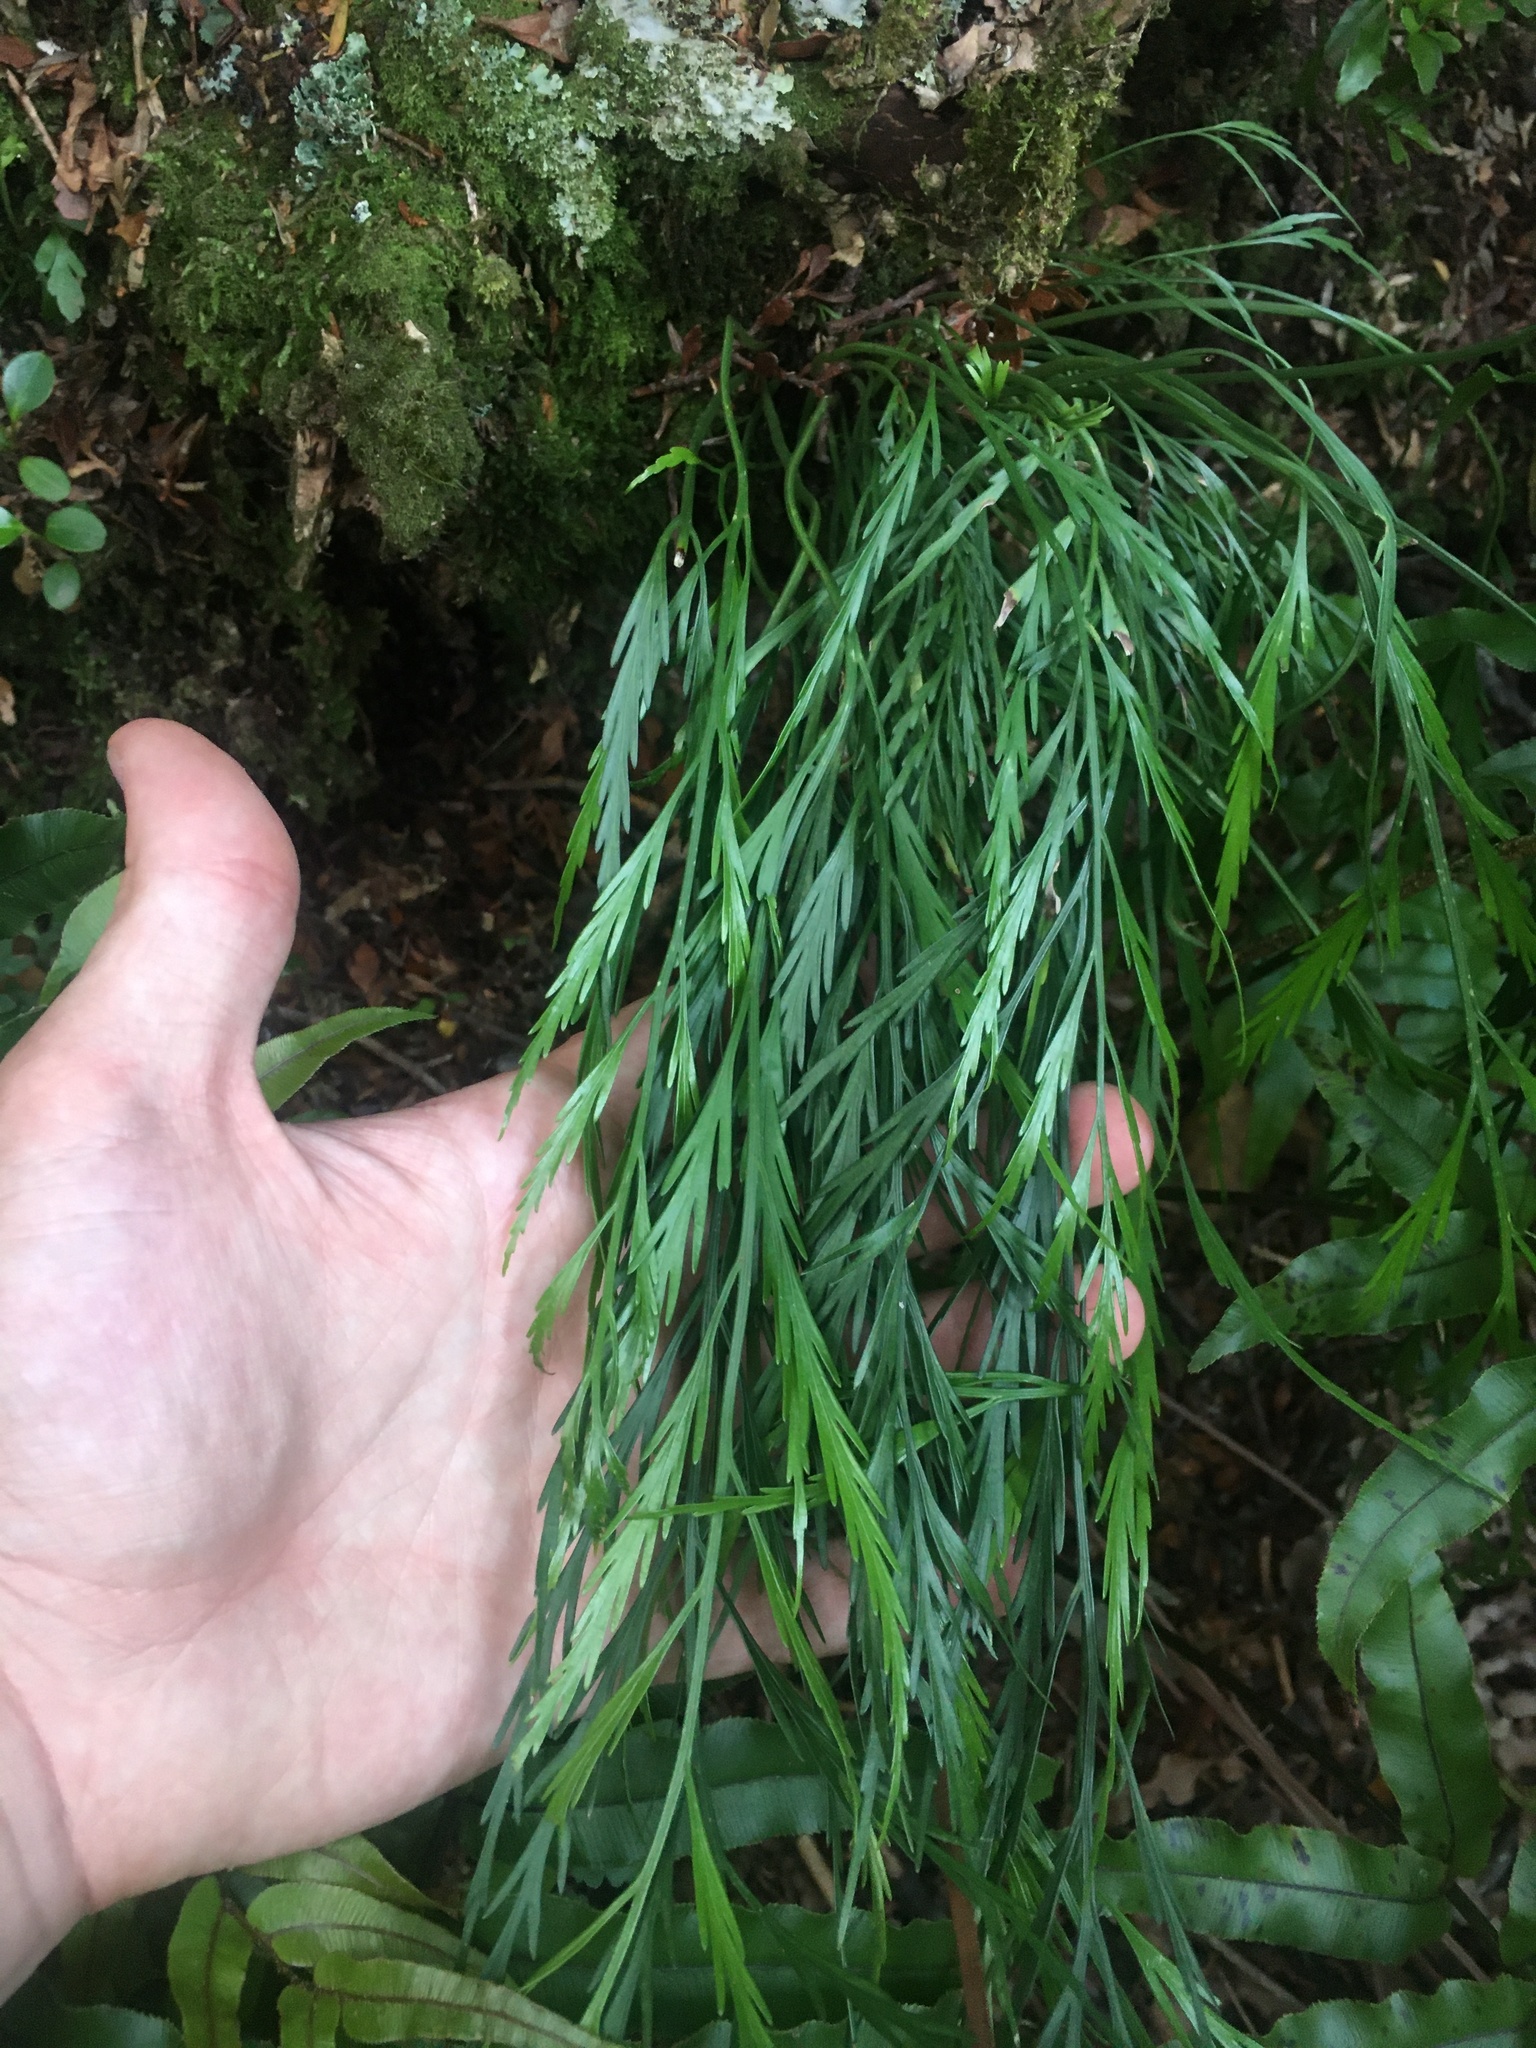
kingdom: Plantae
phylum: Tracheophyta
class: Polypodiopsida
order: Polypodiales
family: Aspleniaceae
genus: Asplenium
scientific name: Asplenium flaccidum
